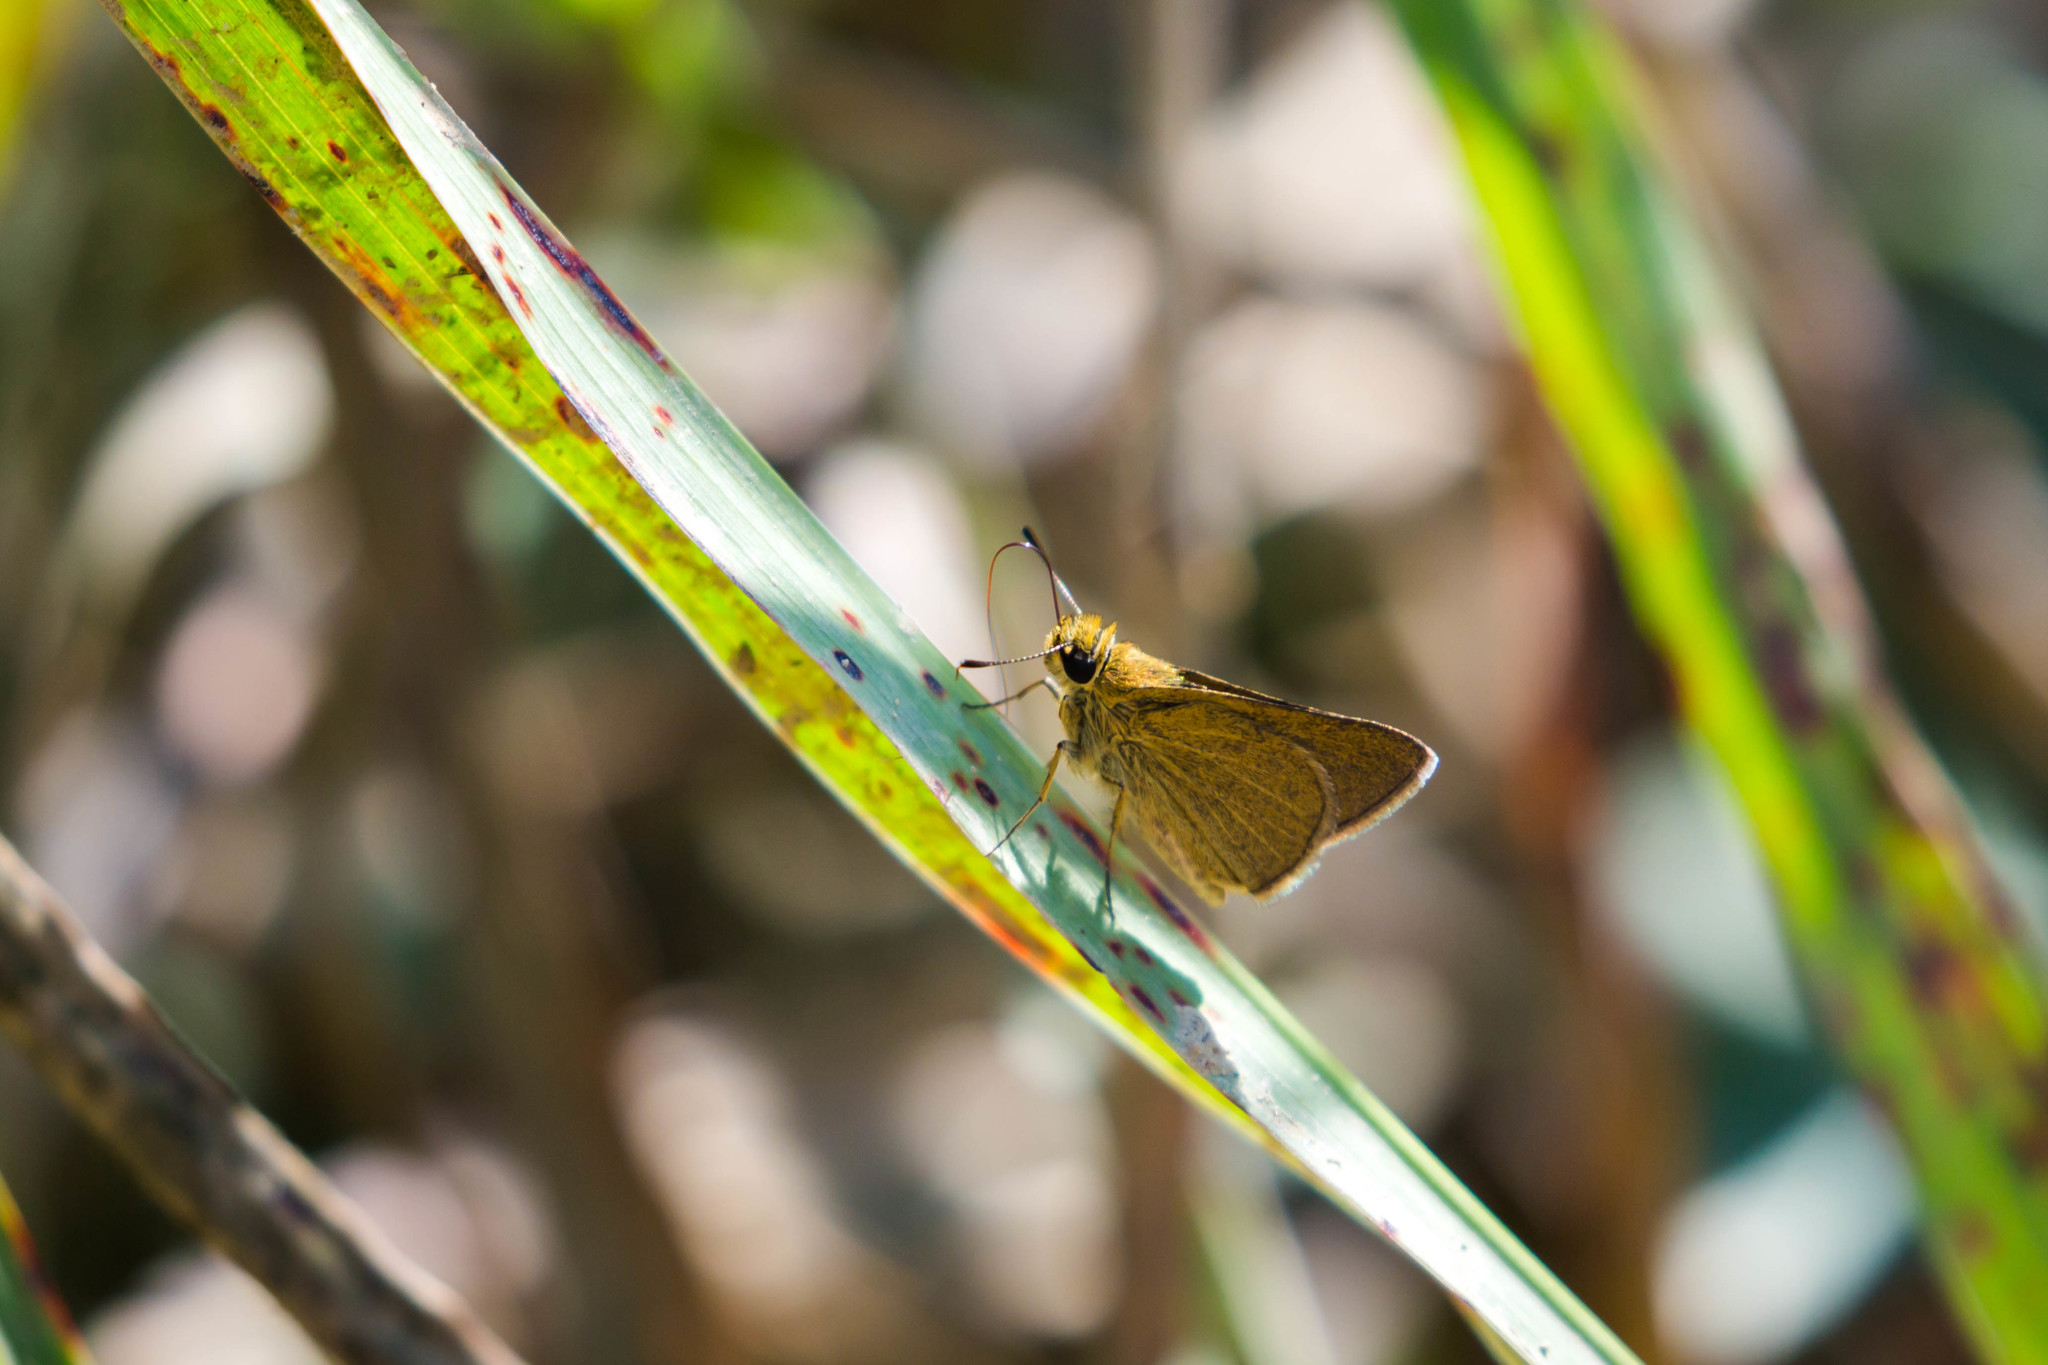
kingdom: Animalia
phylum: Arthropoda
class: Insecta
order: Lepidoptera
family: Hesperiidae
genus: Nastra
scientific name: Nastra lherminier
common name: Swarthy skipper
